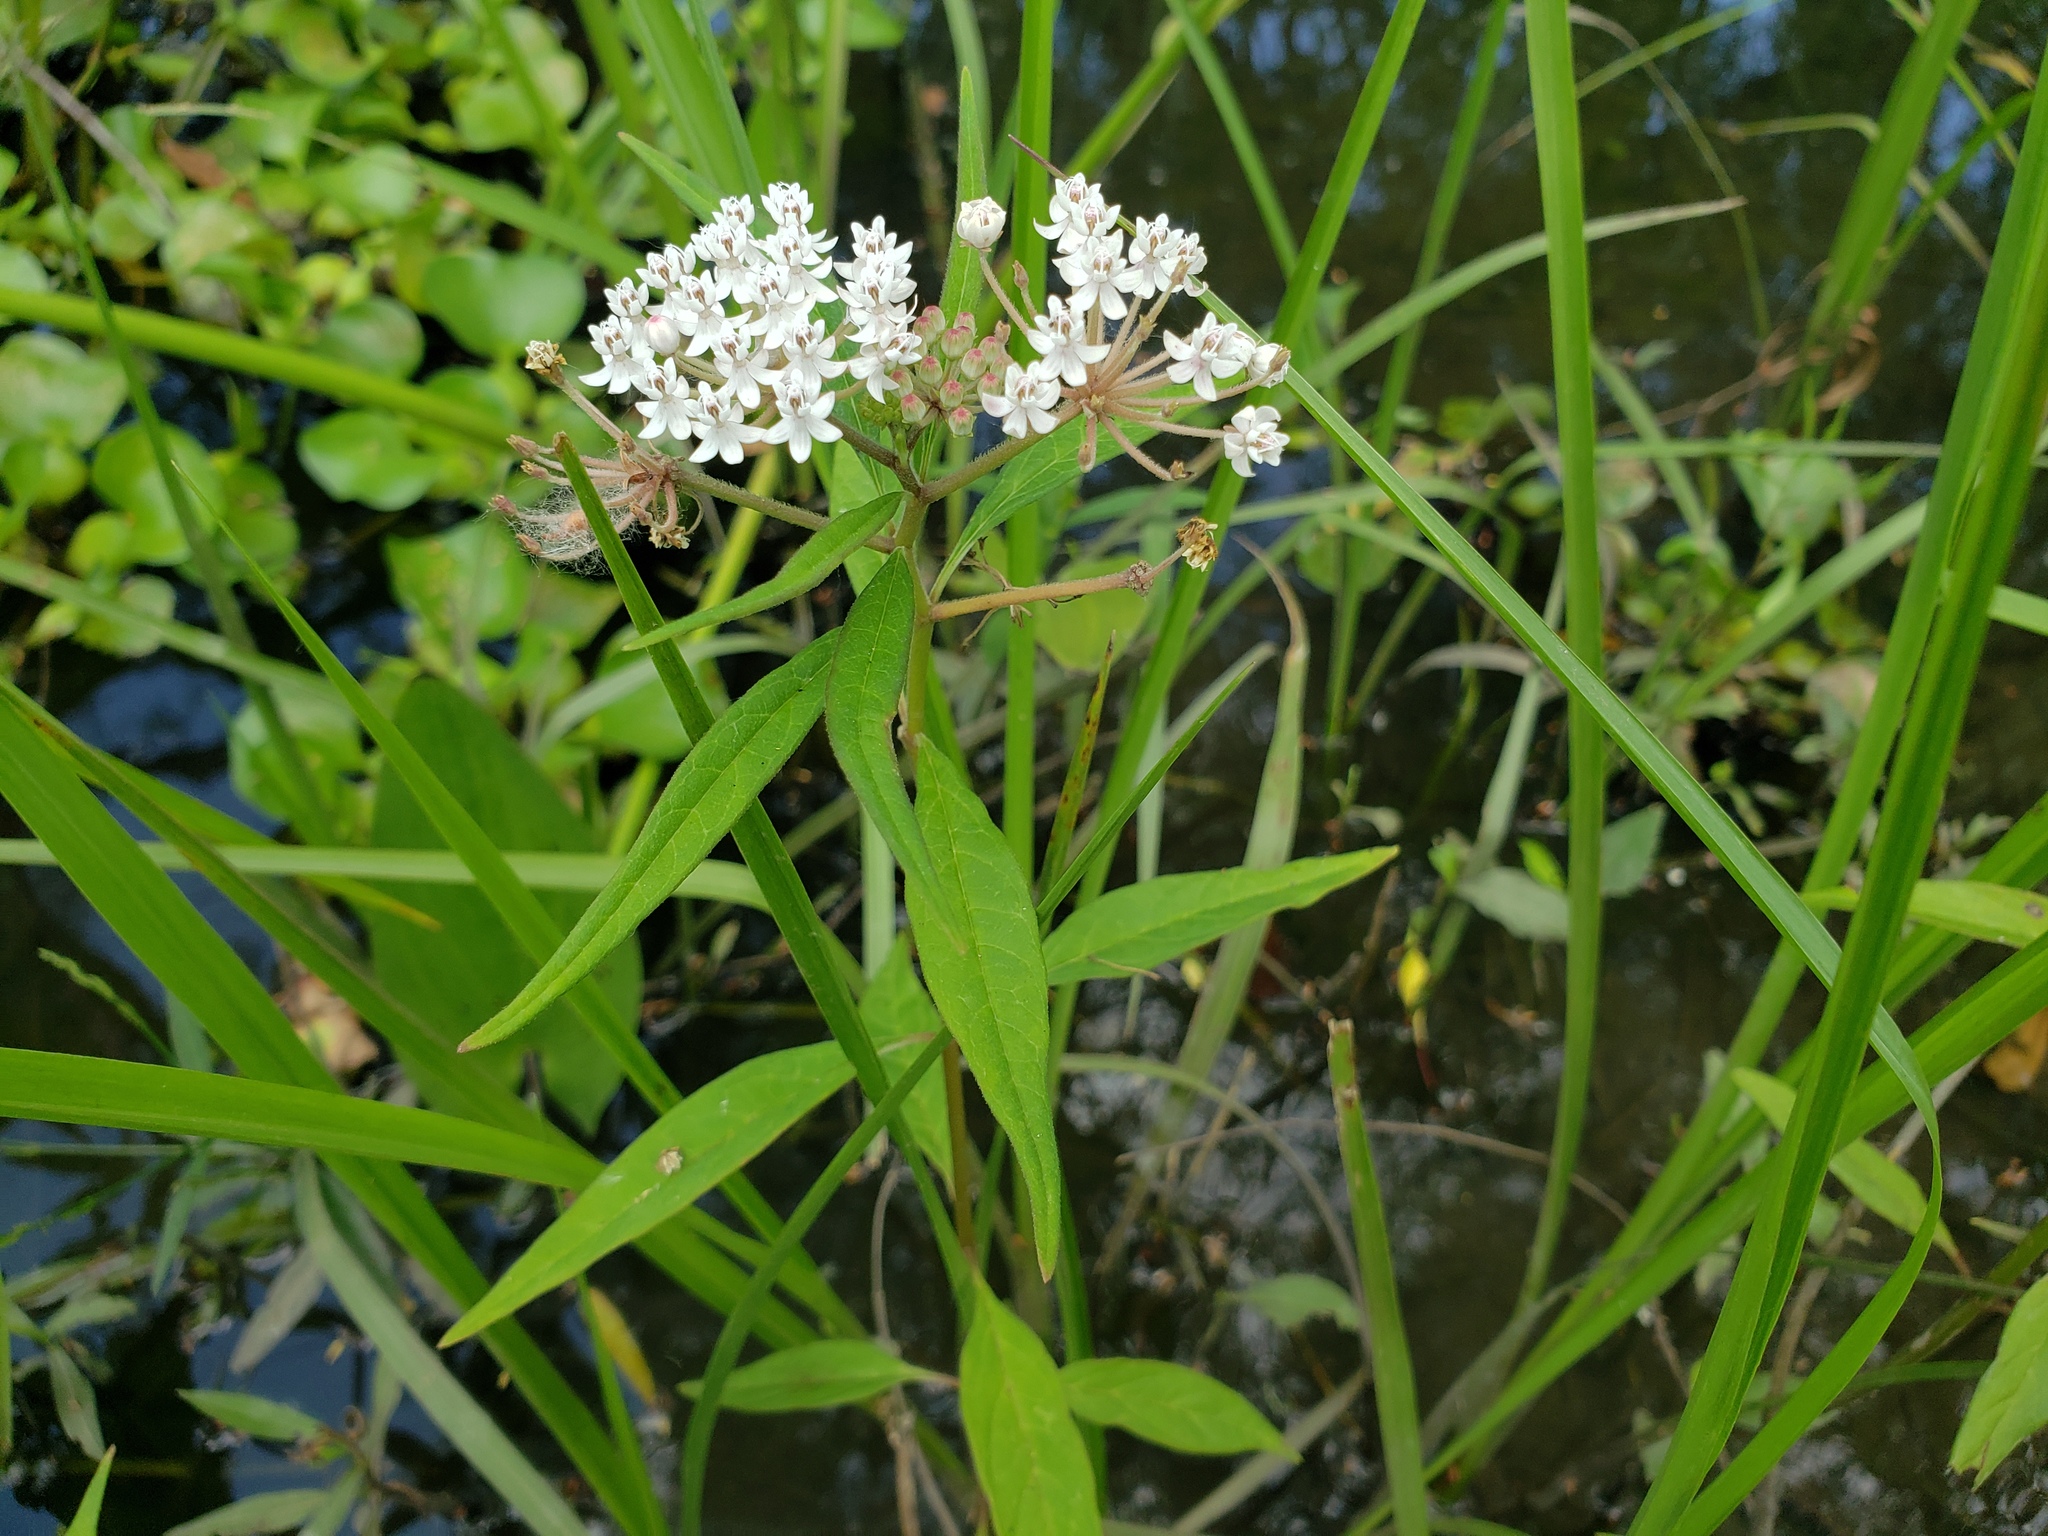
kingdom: Plantae
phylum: Tracheophyta
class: Magnoliopsida
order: Gentianales
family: Apocynaceae
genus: Asclepias
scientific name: Asclepias perennis
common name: Smooth-seed milkweed
